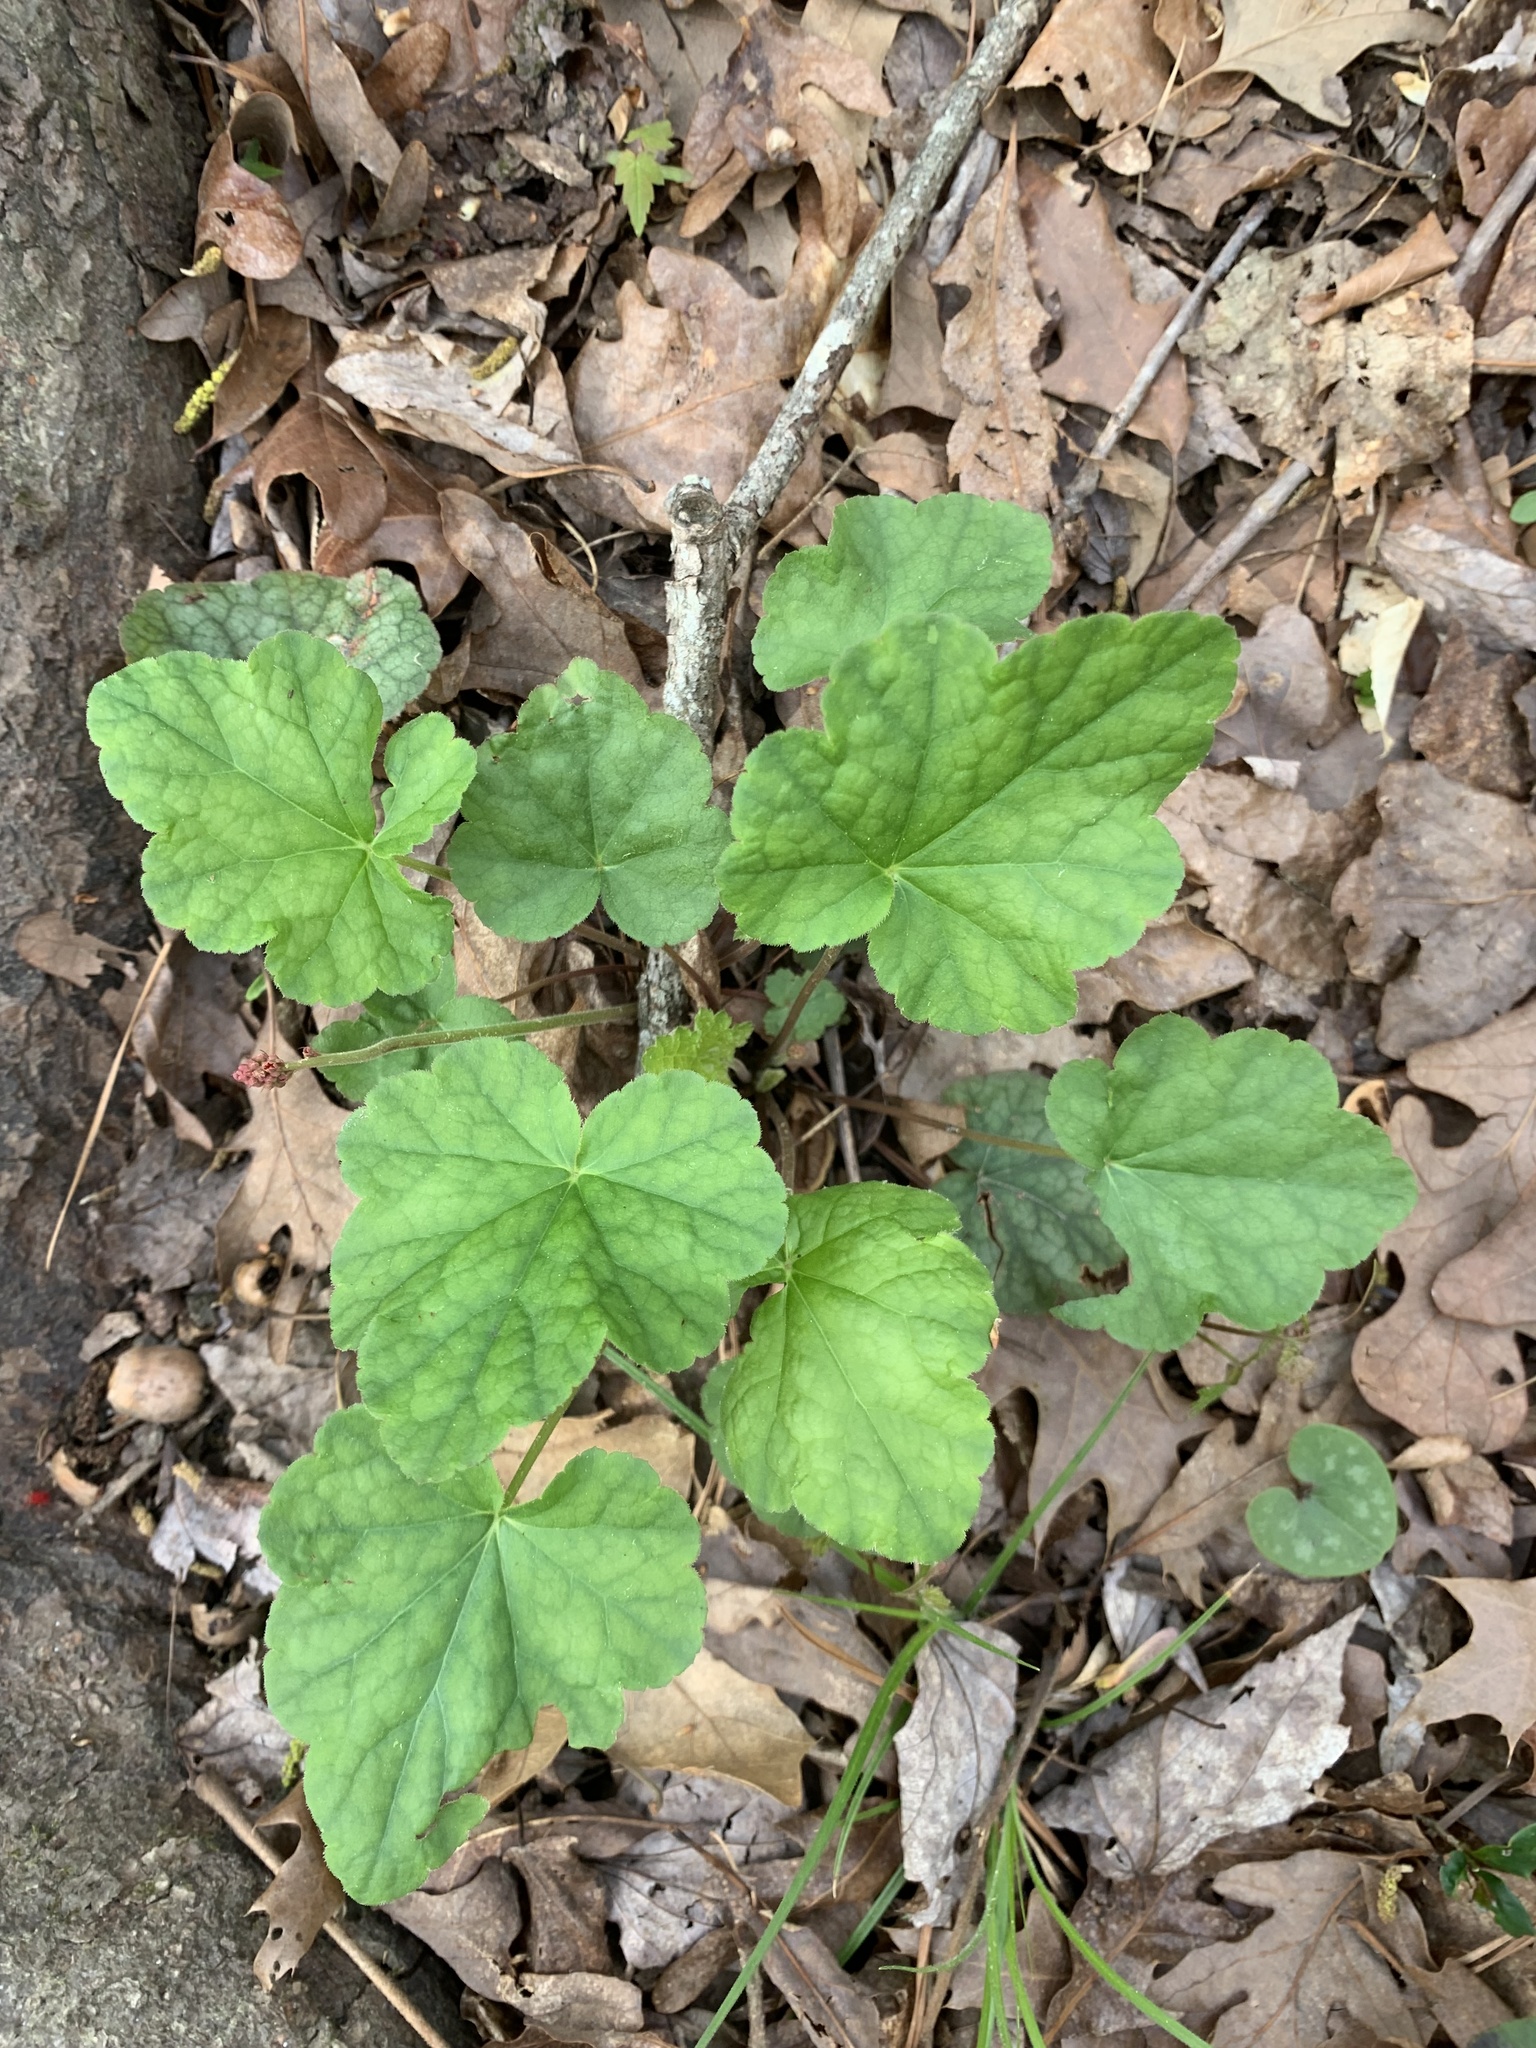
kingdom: Plantae
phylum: Tracheophyta
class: Magnoliopsida
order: Saxifragales
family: Saxifragaceae
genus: Heuchera
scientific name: Heuchera americana
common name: Alumroot
